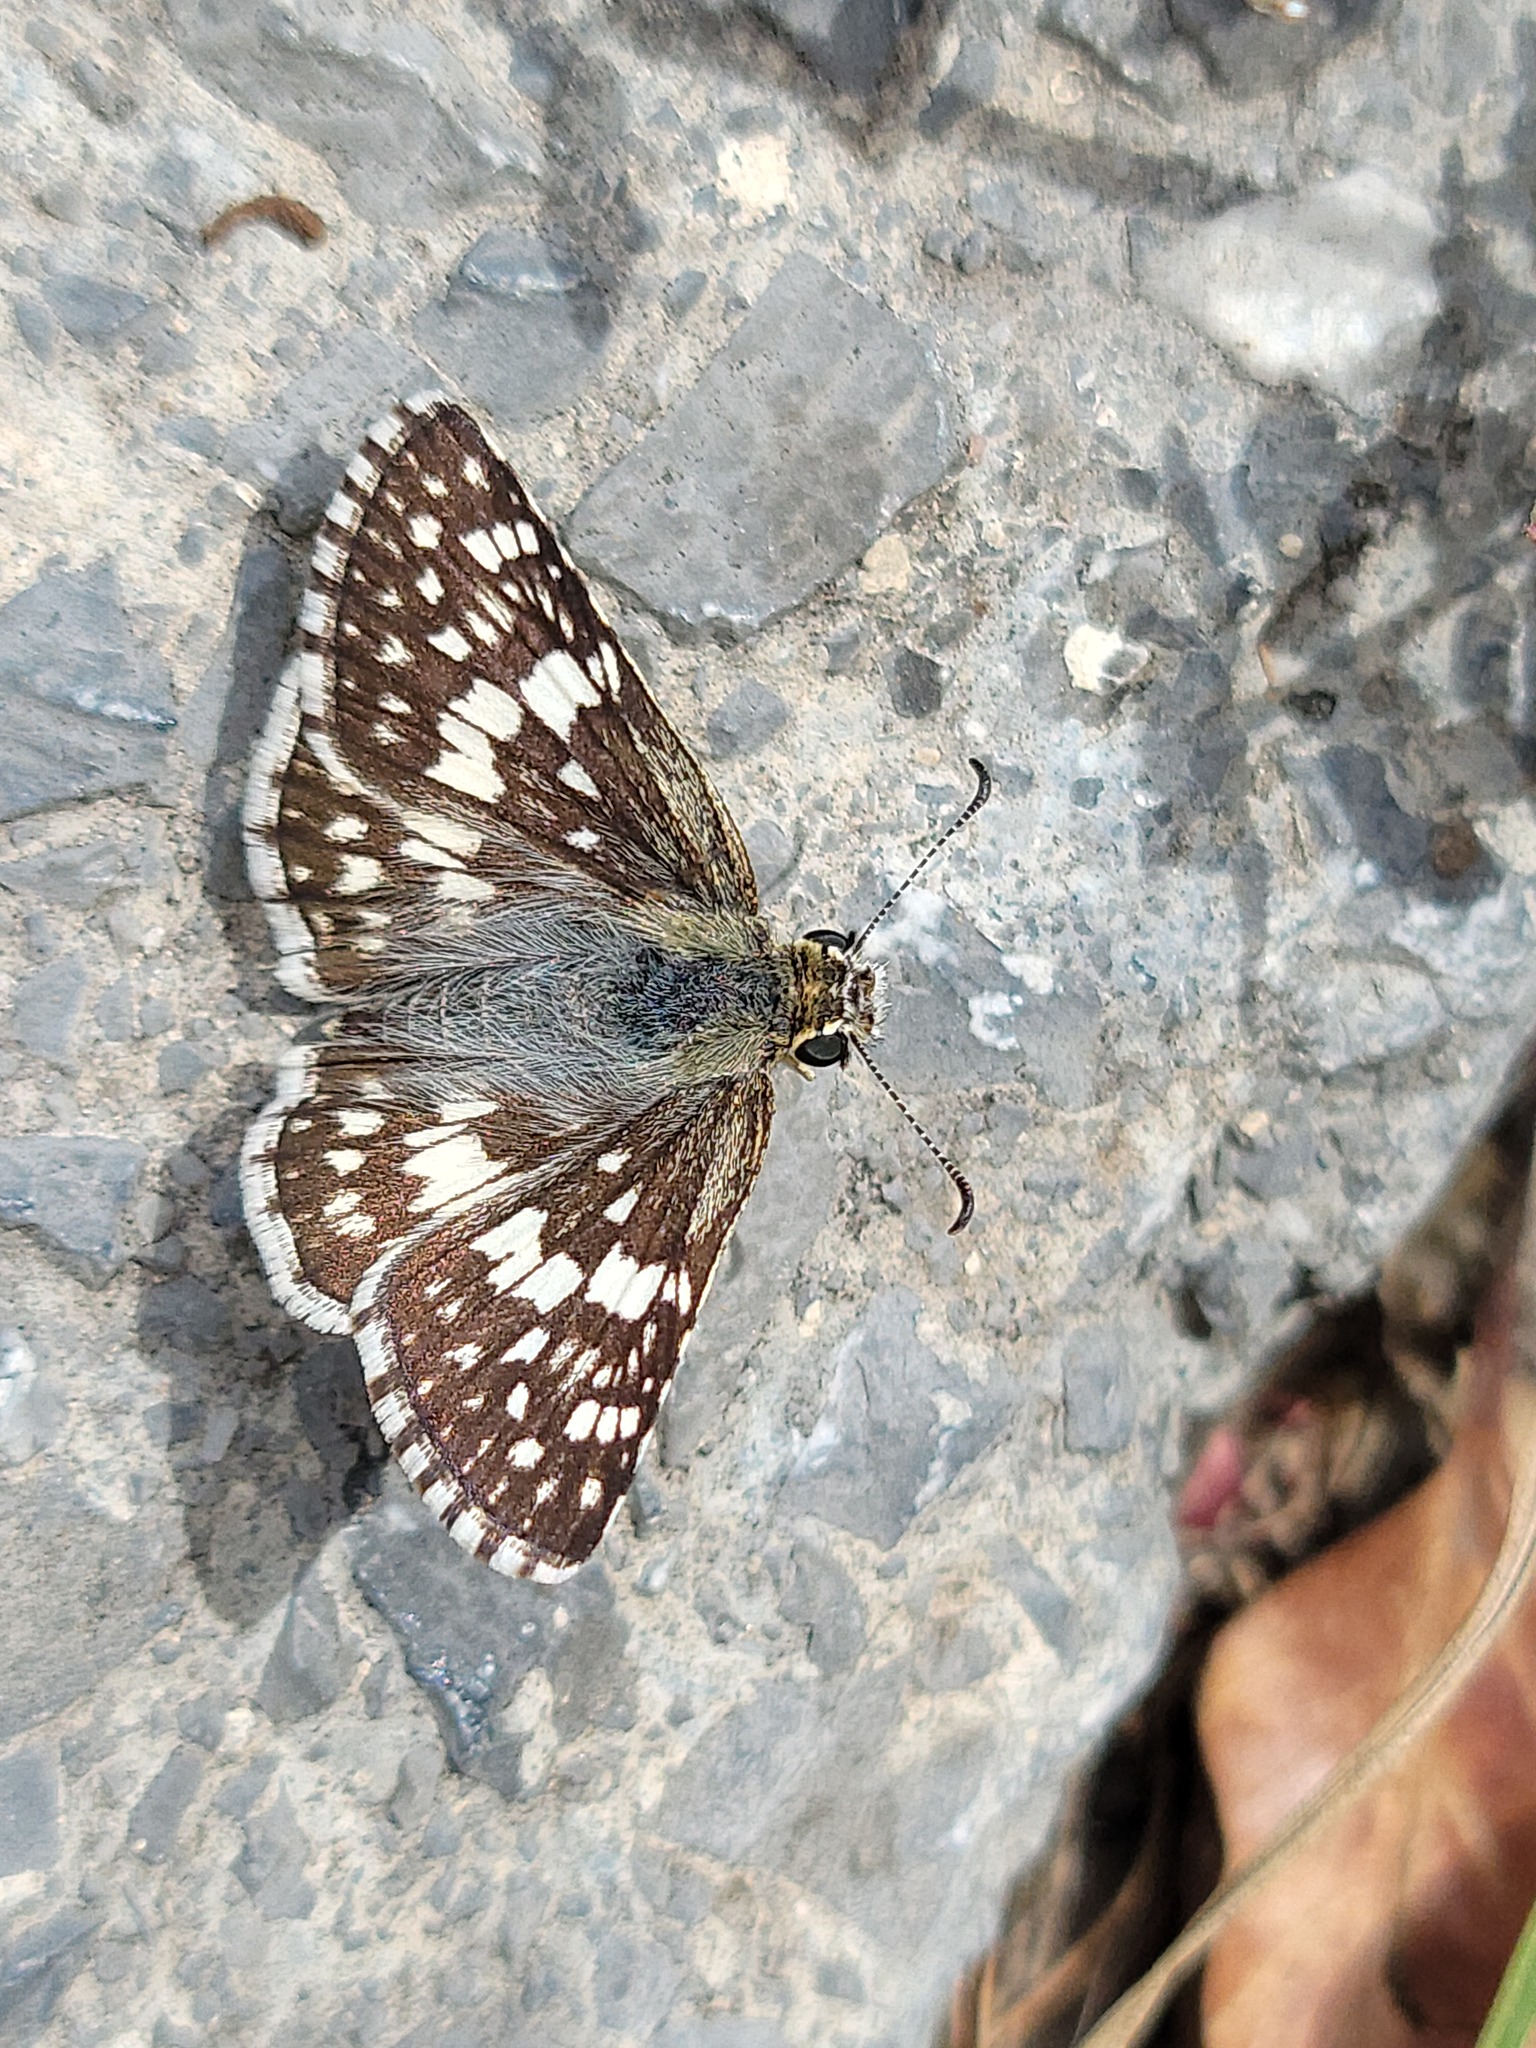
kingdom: Animalia
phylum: Arthropoda
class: Insecta
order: Lepidoptera
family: Hesperiidae
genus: Burnsius
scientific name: Burnsius albezens
